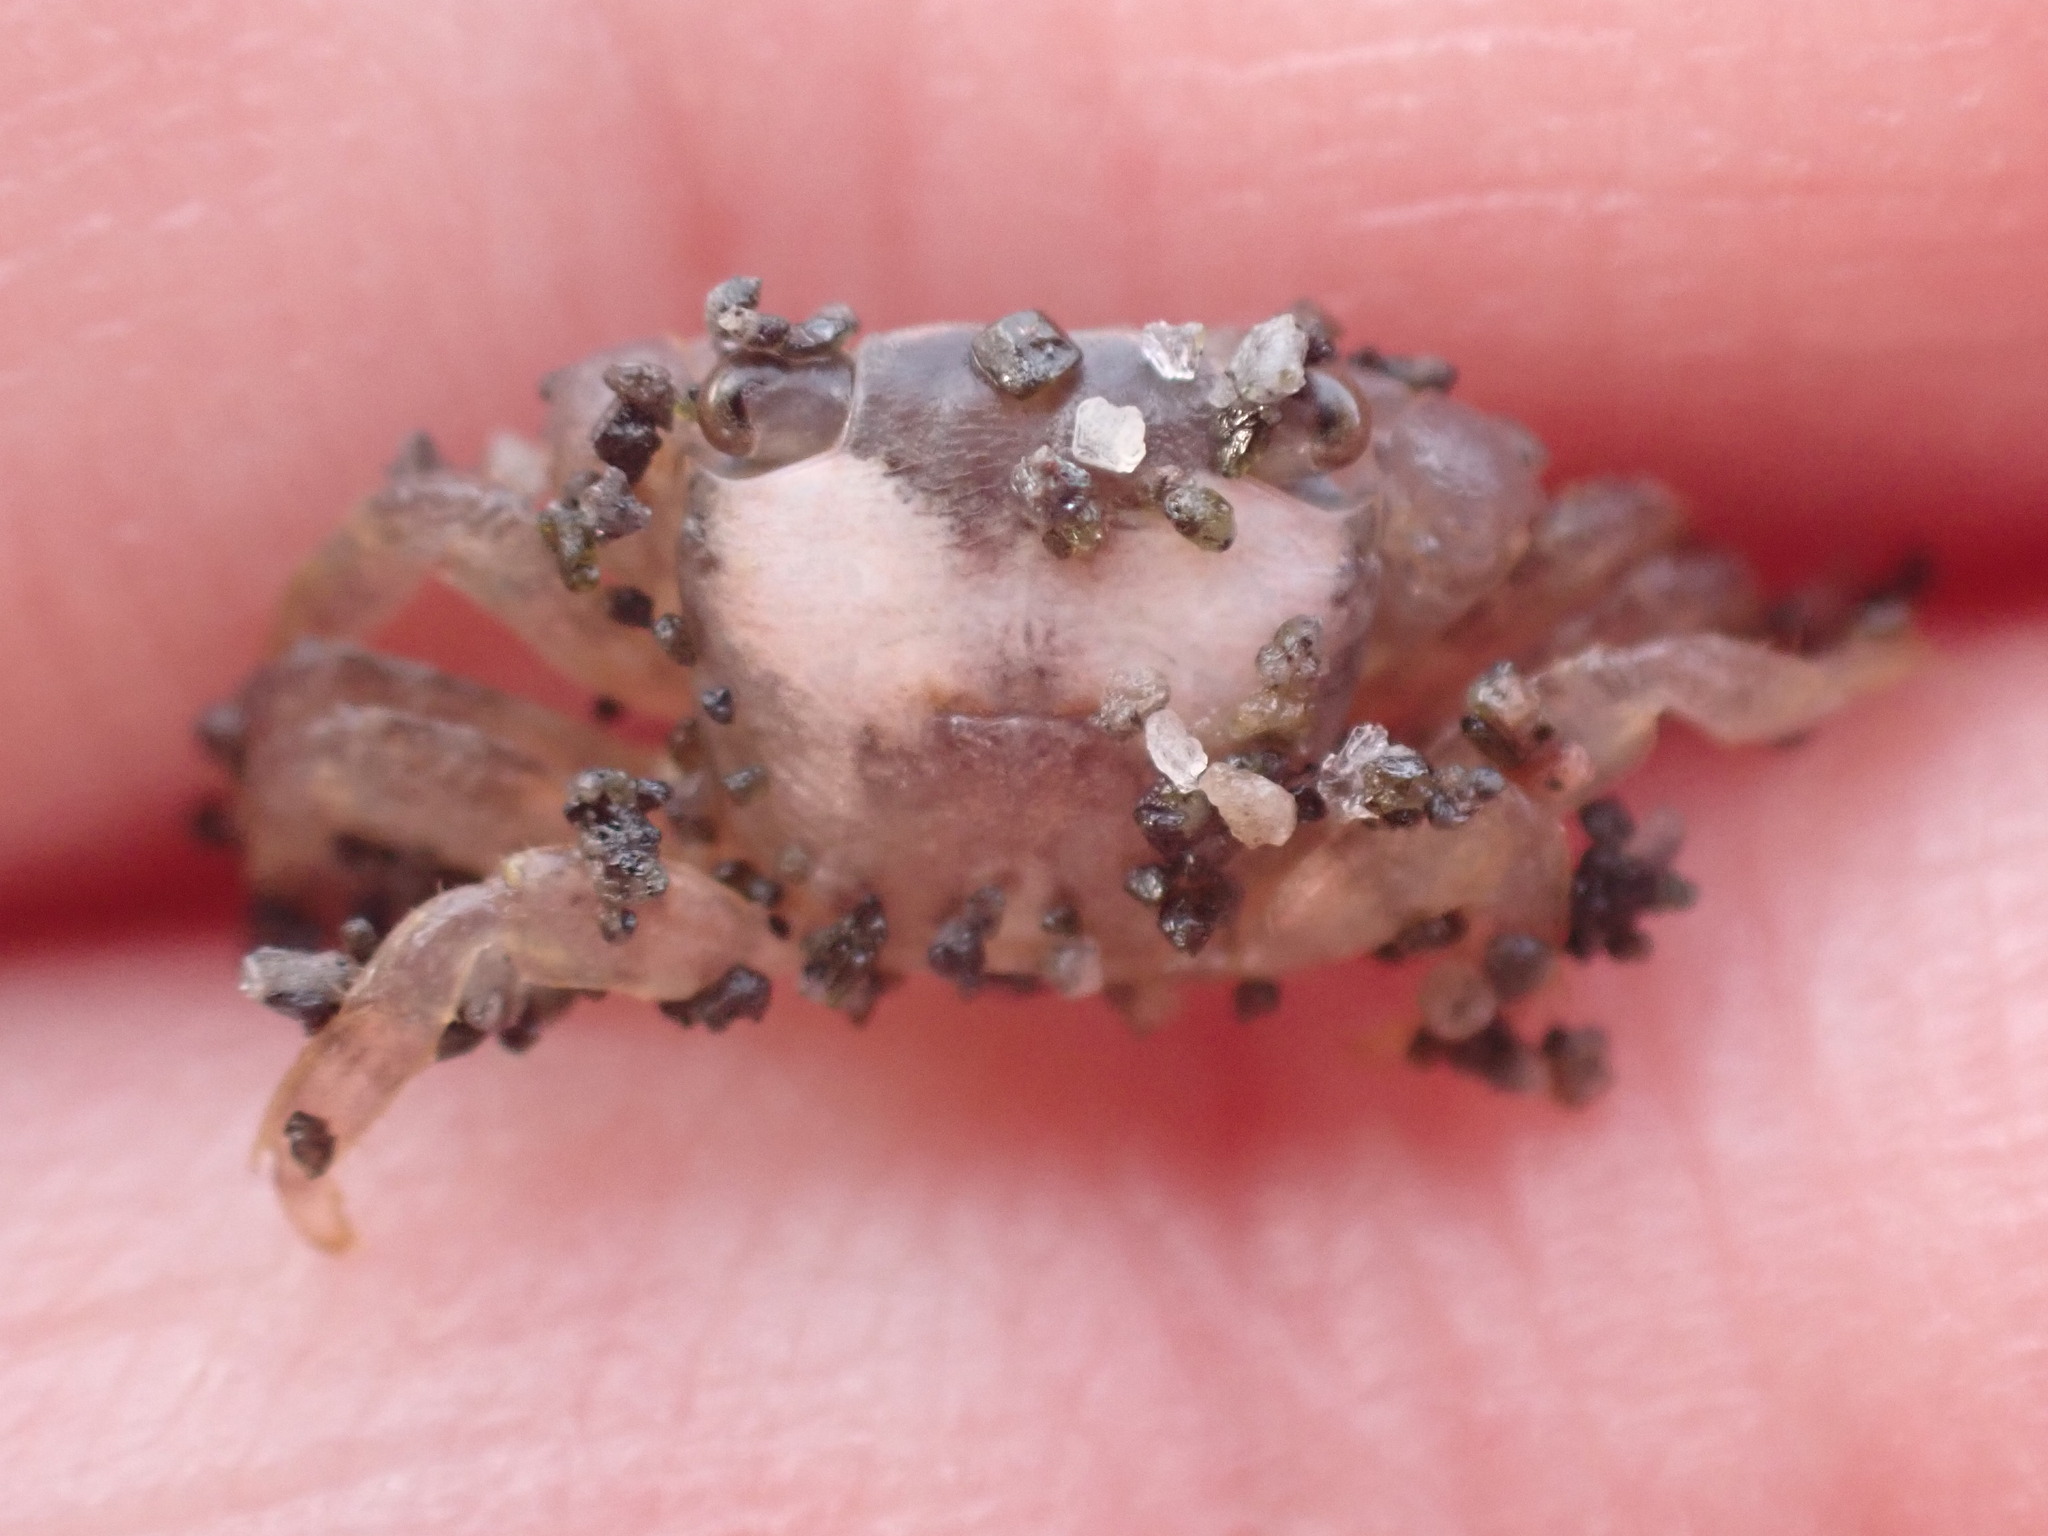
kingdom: Animalia
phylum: Arthropoda
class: Malacostraca
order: Decapoda
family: Grapsidae
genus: Planes
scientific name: Planes minutus
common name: Gulf weed crab
